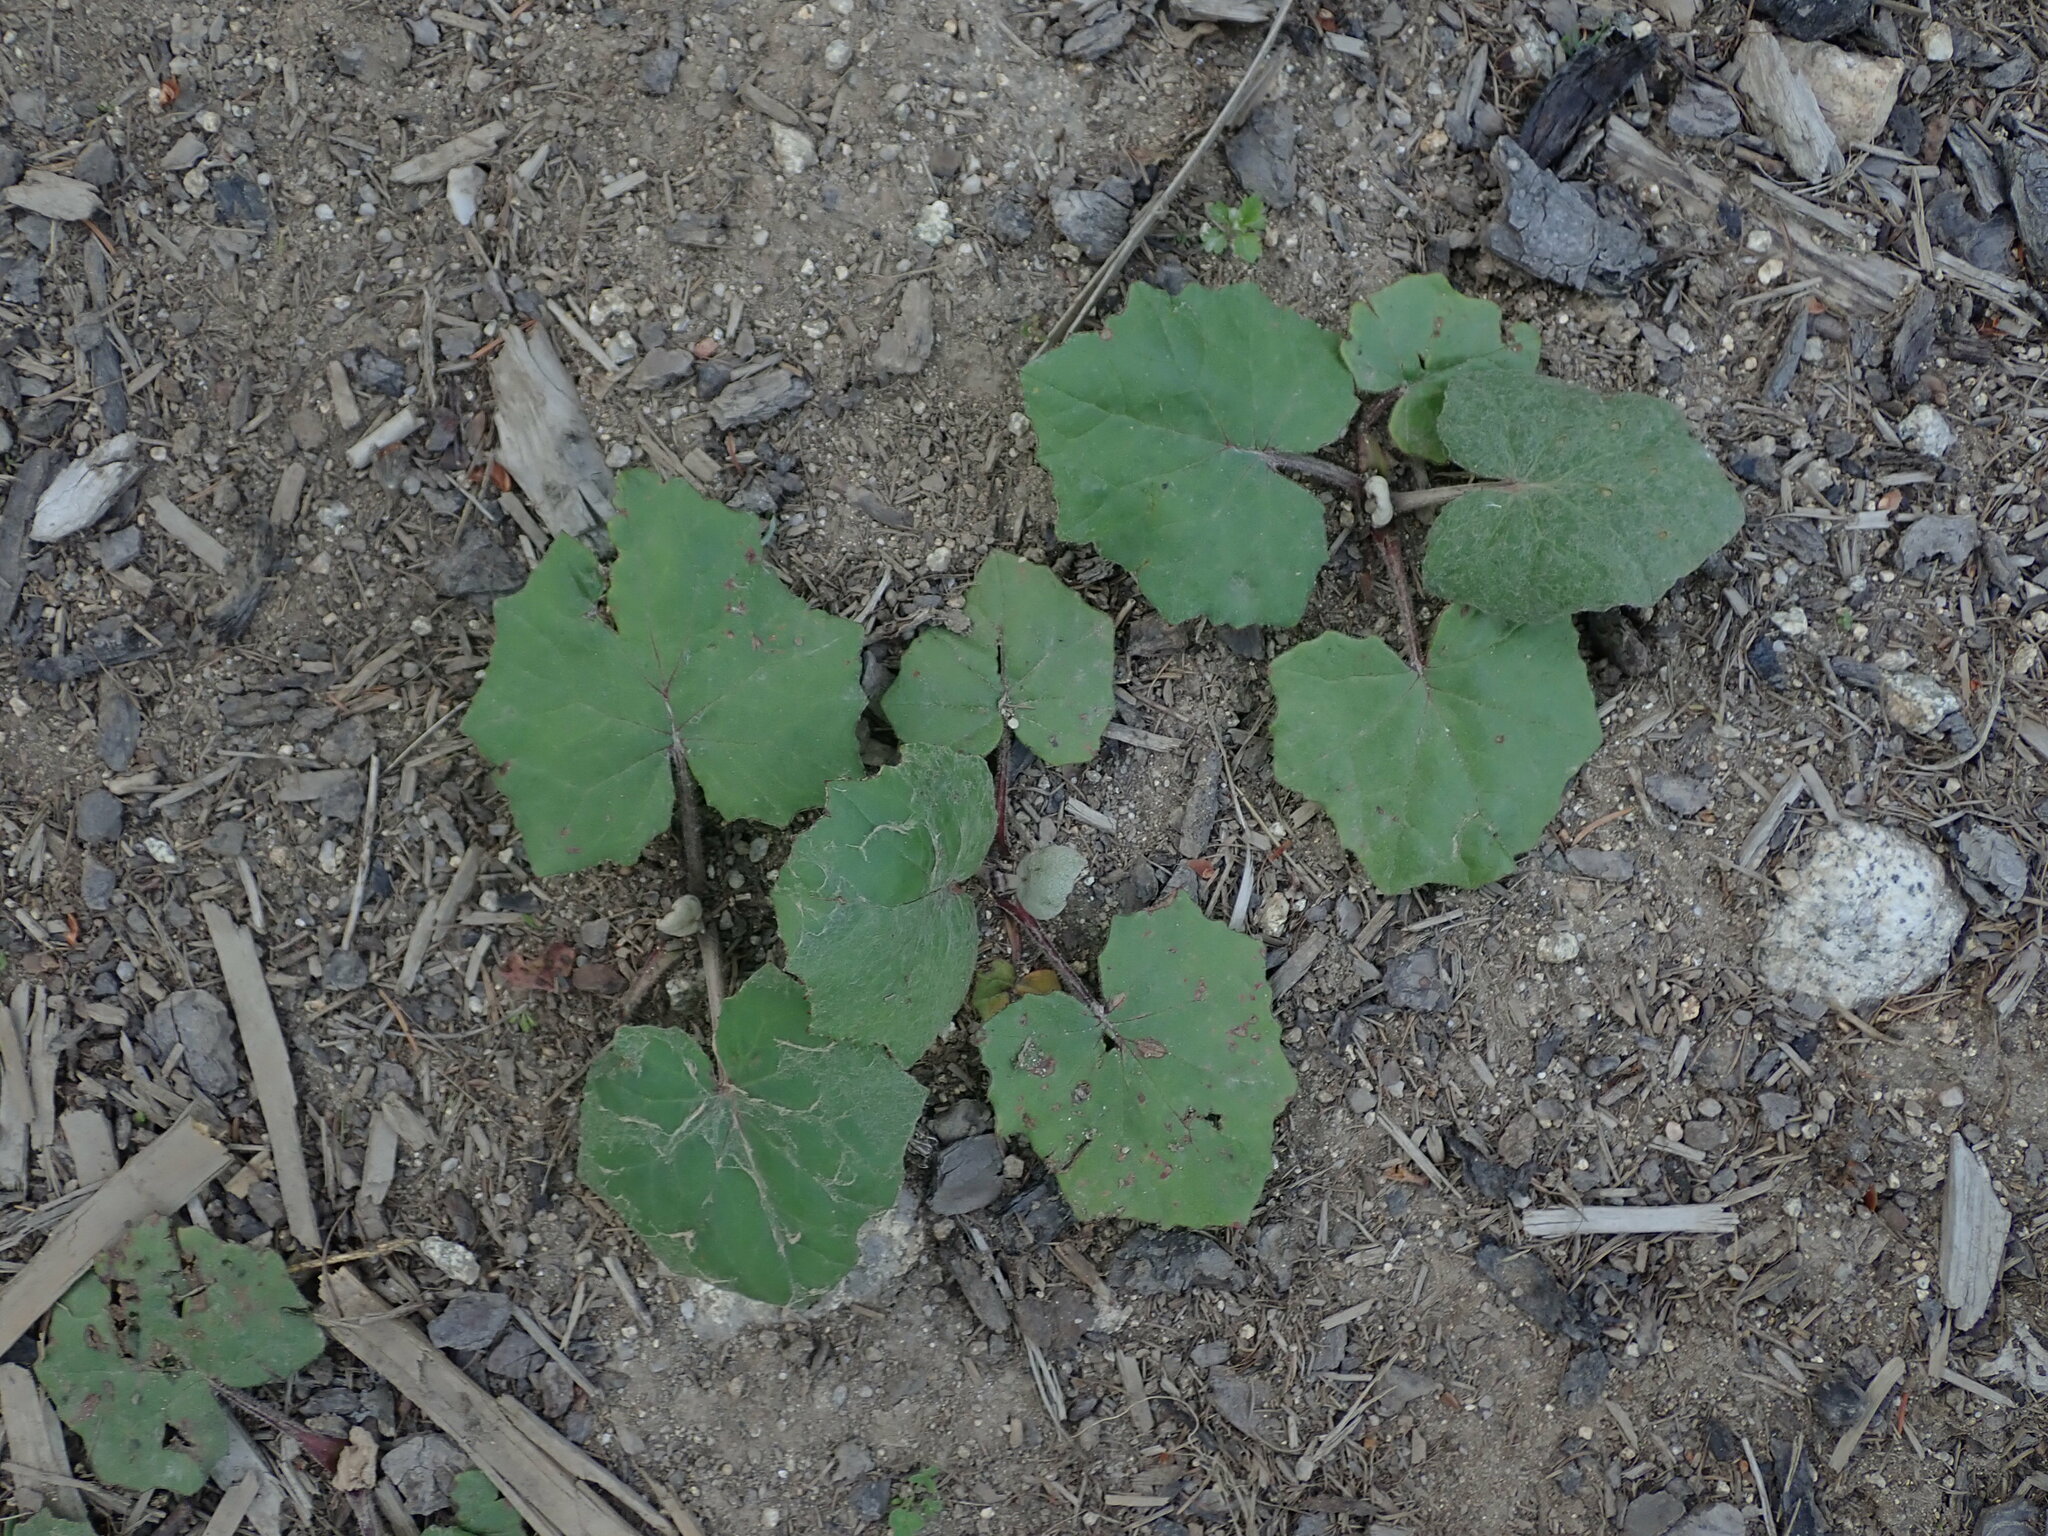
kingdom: Plantae
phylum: Tracheophyta
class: Magnoliopsida
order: Asterales
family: Asteraceae
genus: Tussilago
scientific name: Tussilago farfara
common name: Coltsfoot
